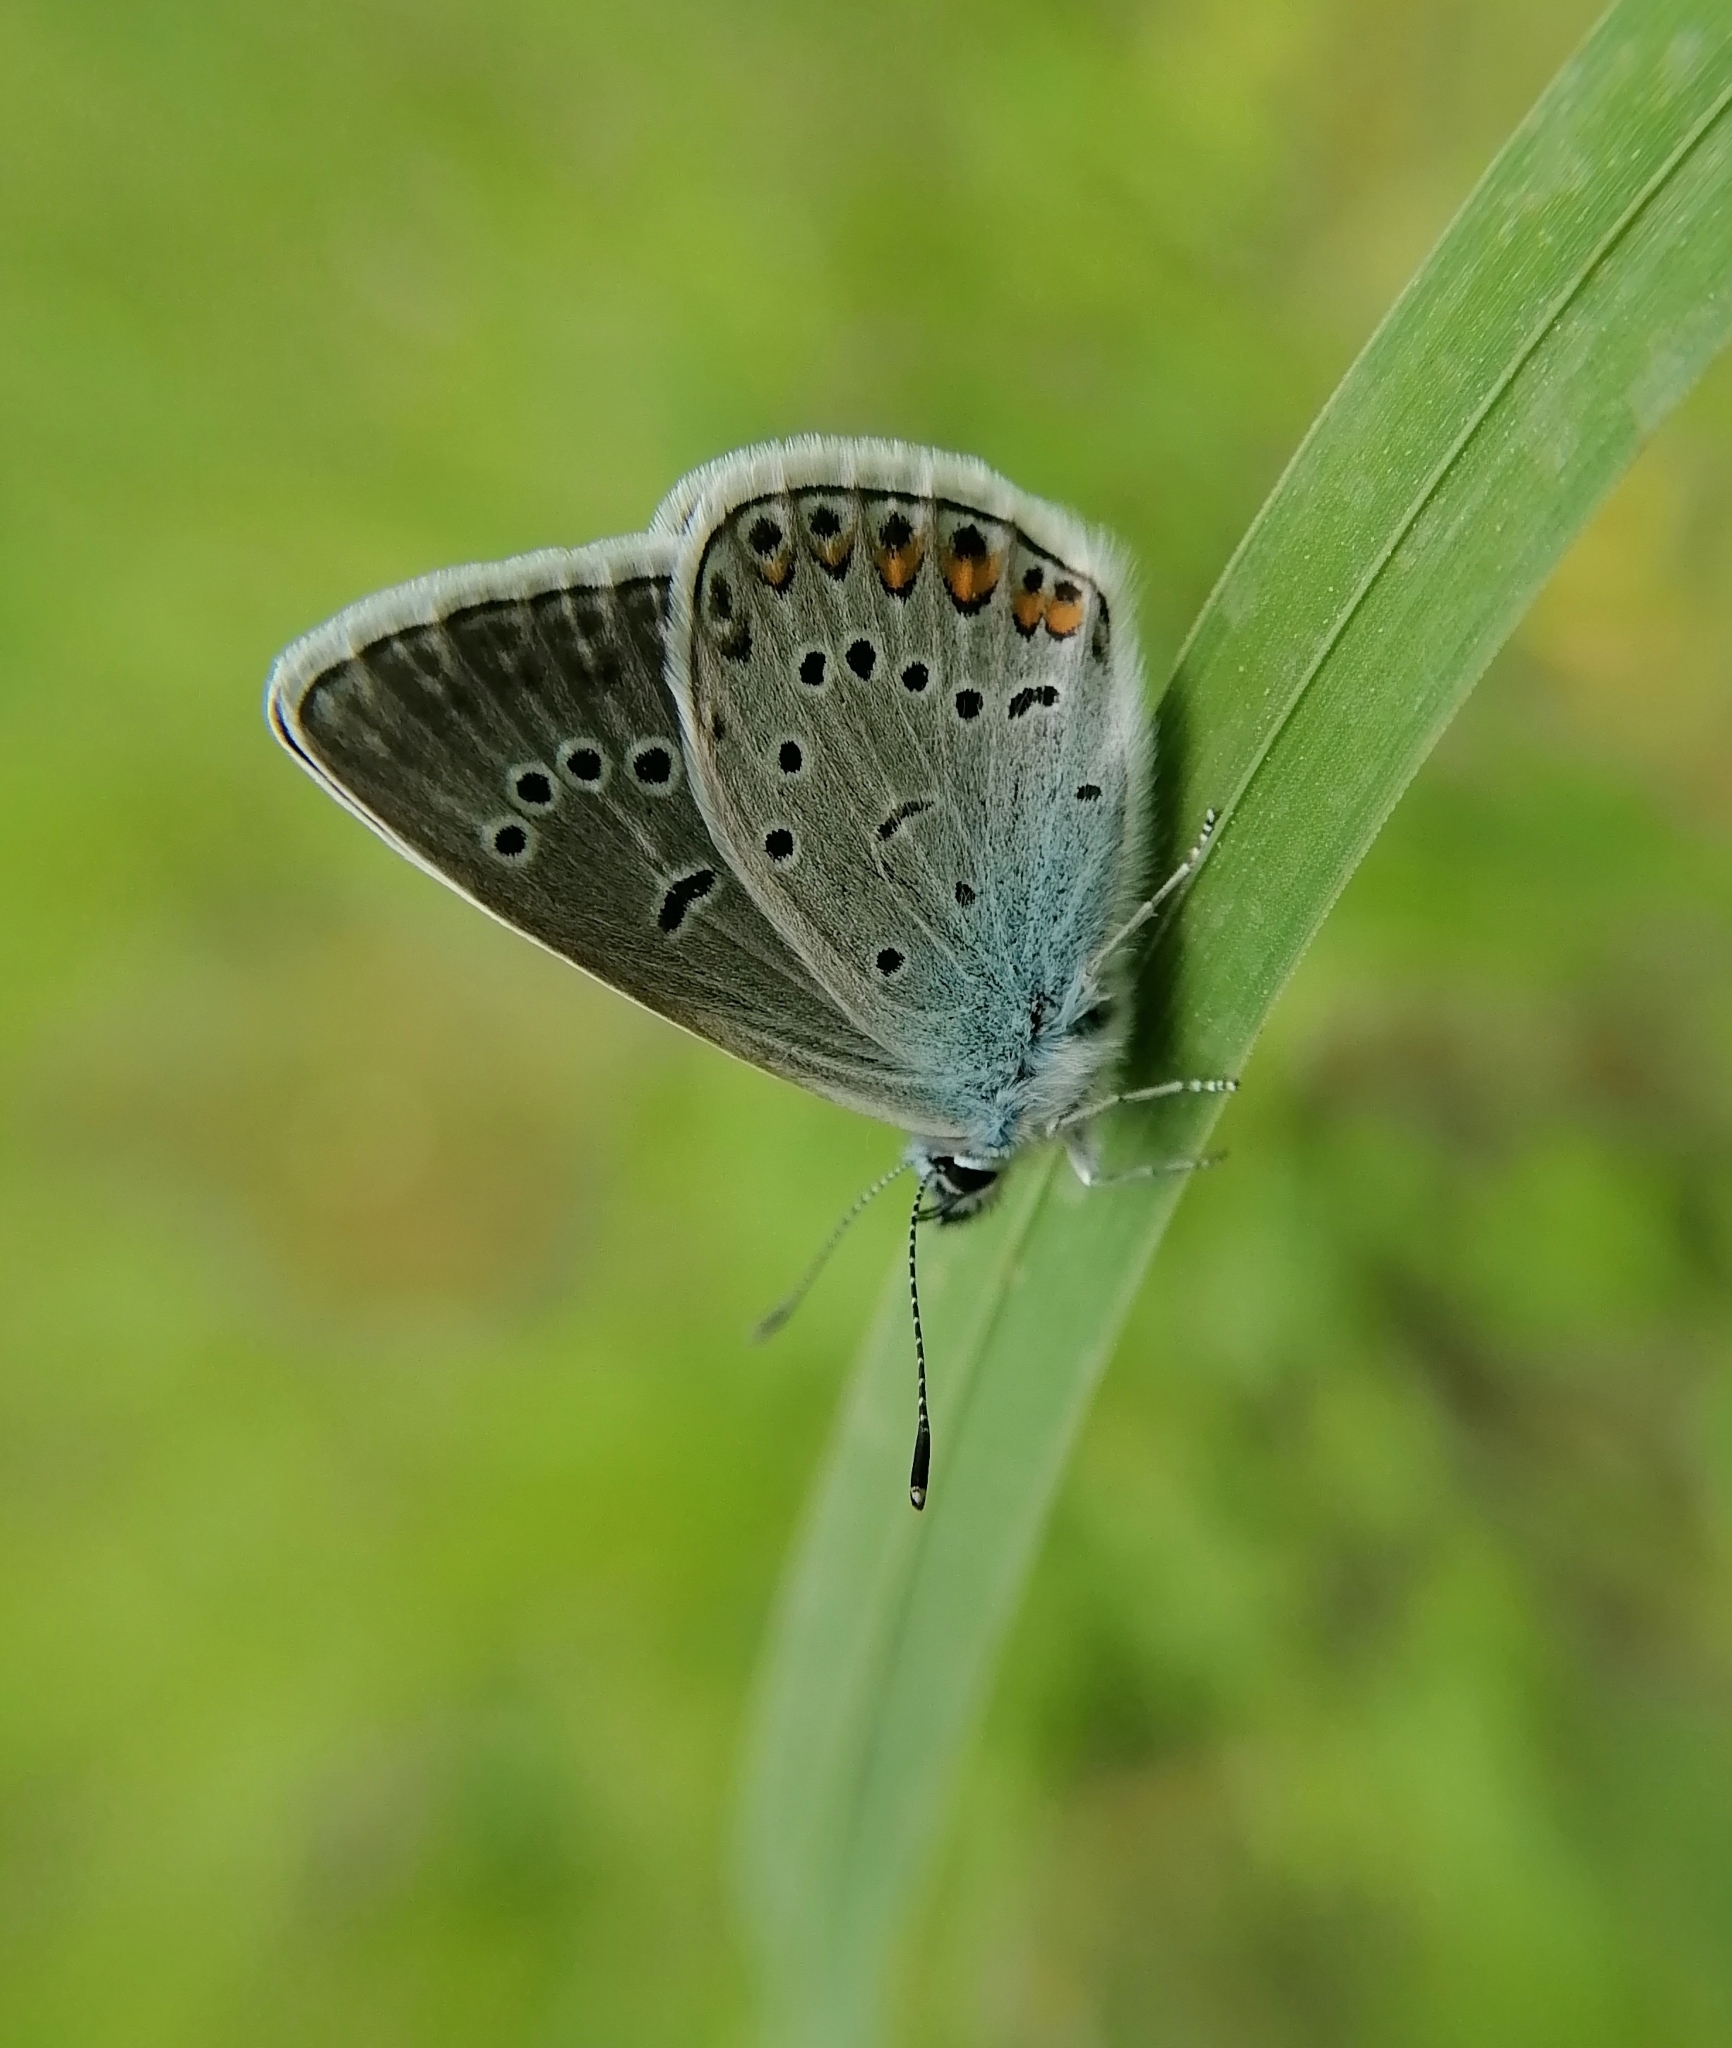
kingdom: Animalia
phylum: Arthropoda
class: Insecta
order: Lepidoptera
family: Lycaenidae
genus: Plebejus
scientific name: Plebejus amanda
